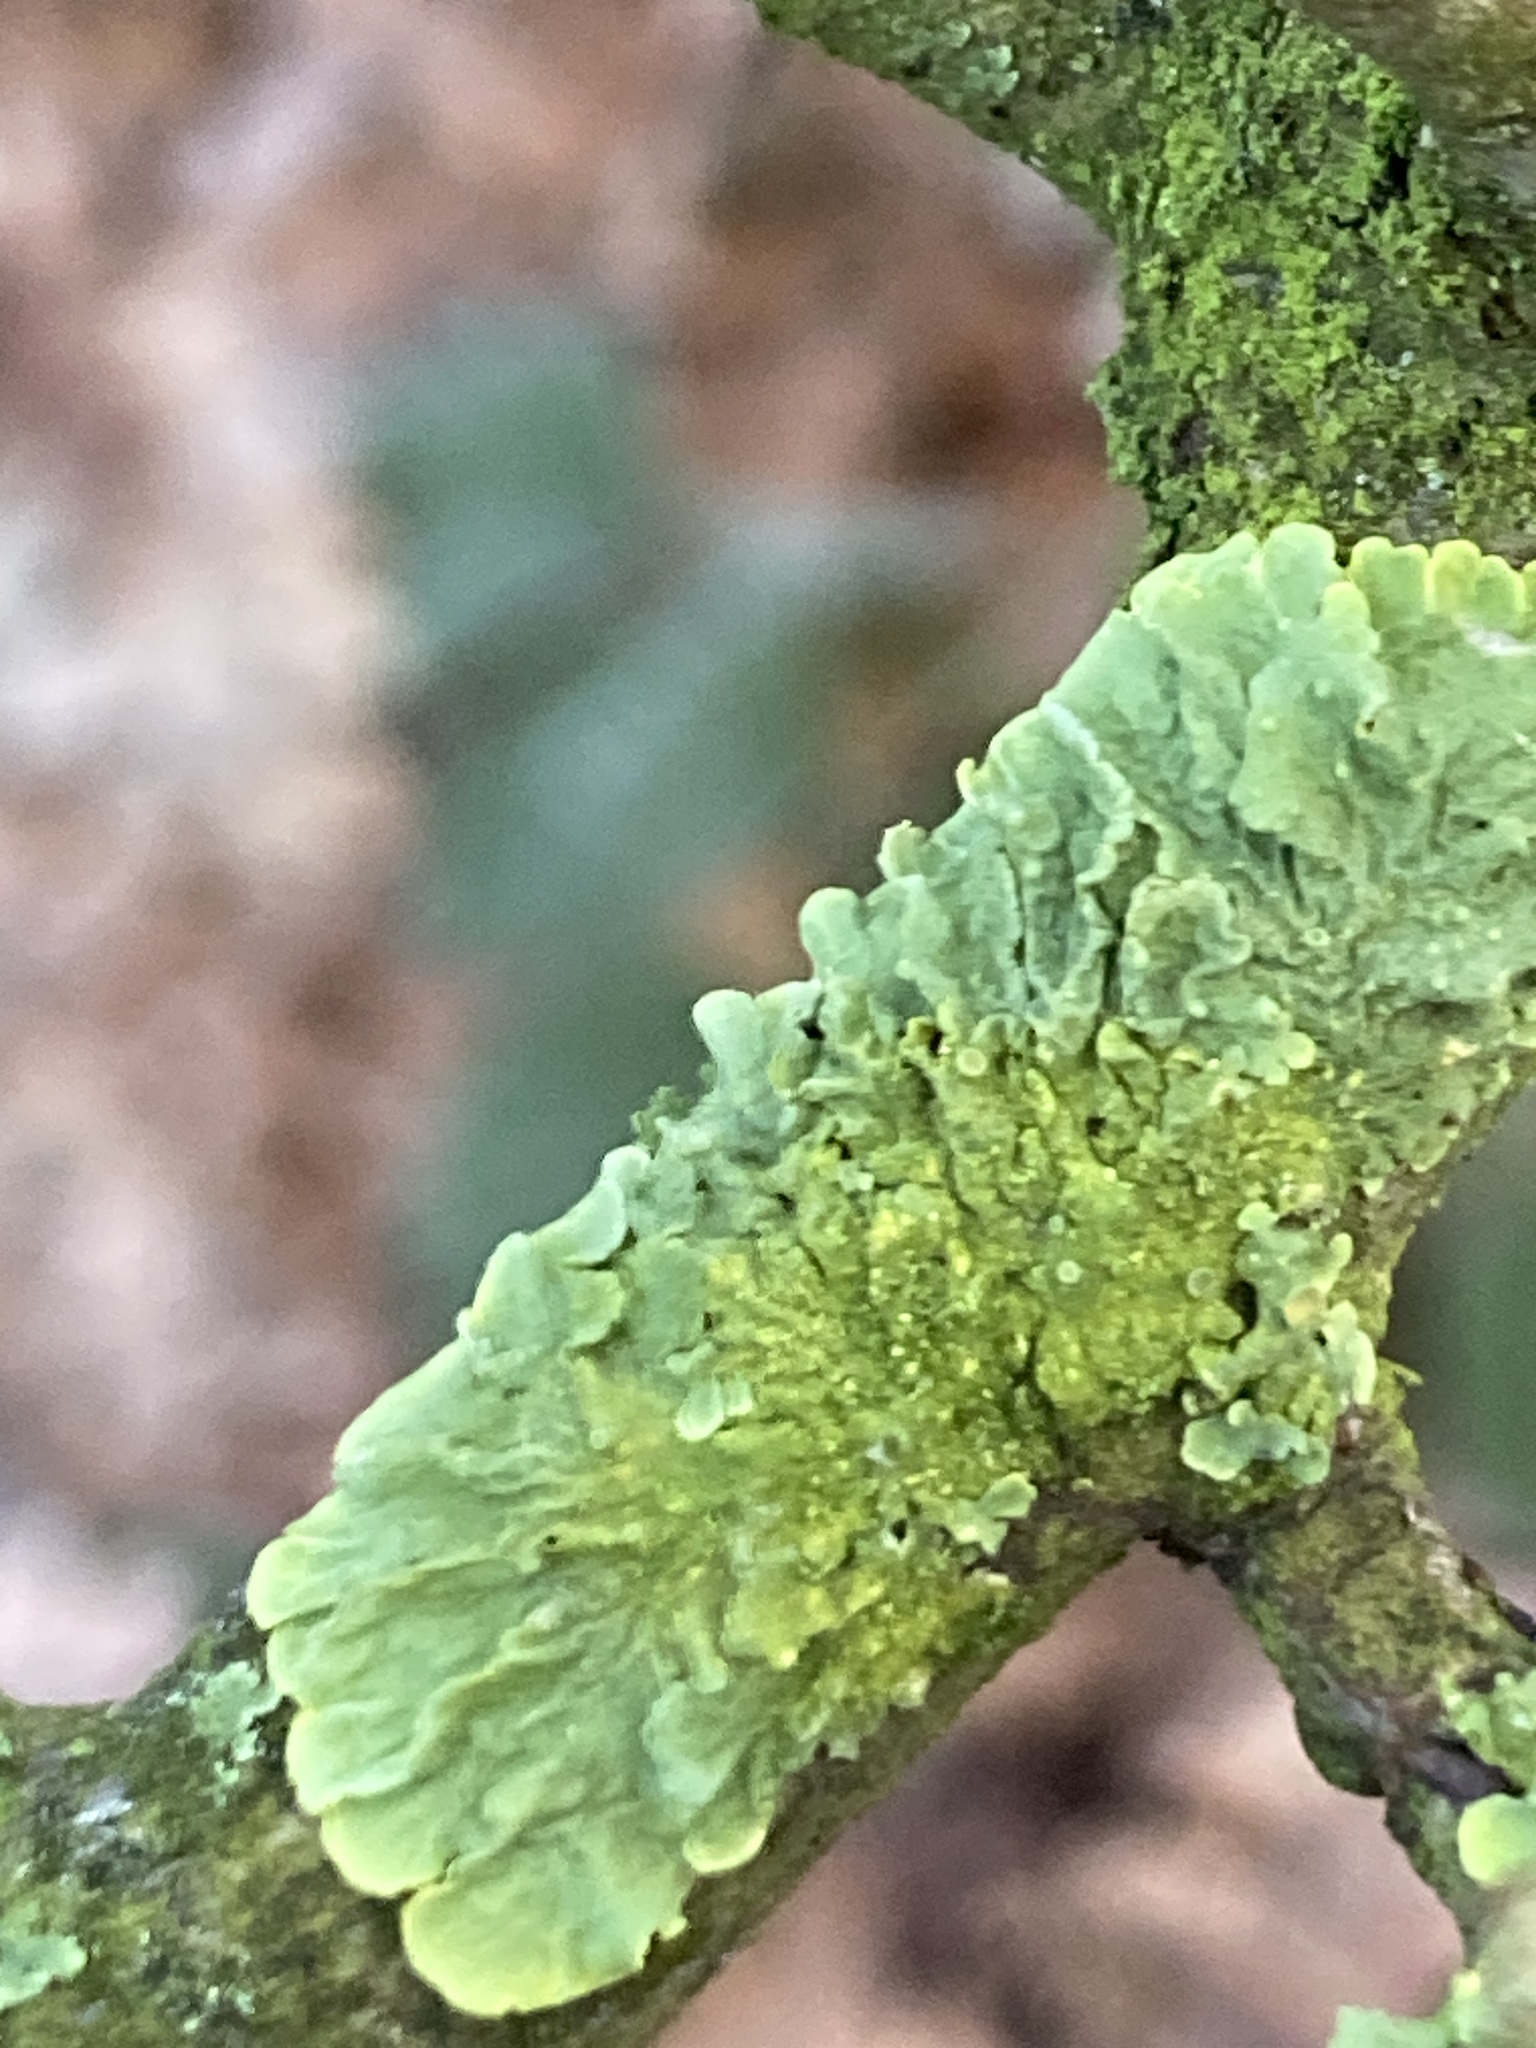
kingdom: Fungi
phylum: Ascomycota
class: Lecanoromycetes
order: Teloschistales
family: Teloschistaceae
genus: Xanthoria
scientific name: Xanthoria parietina
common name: Common orange lichen
